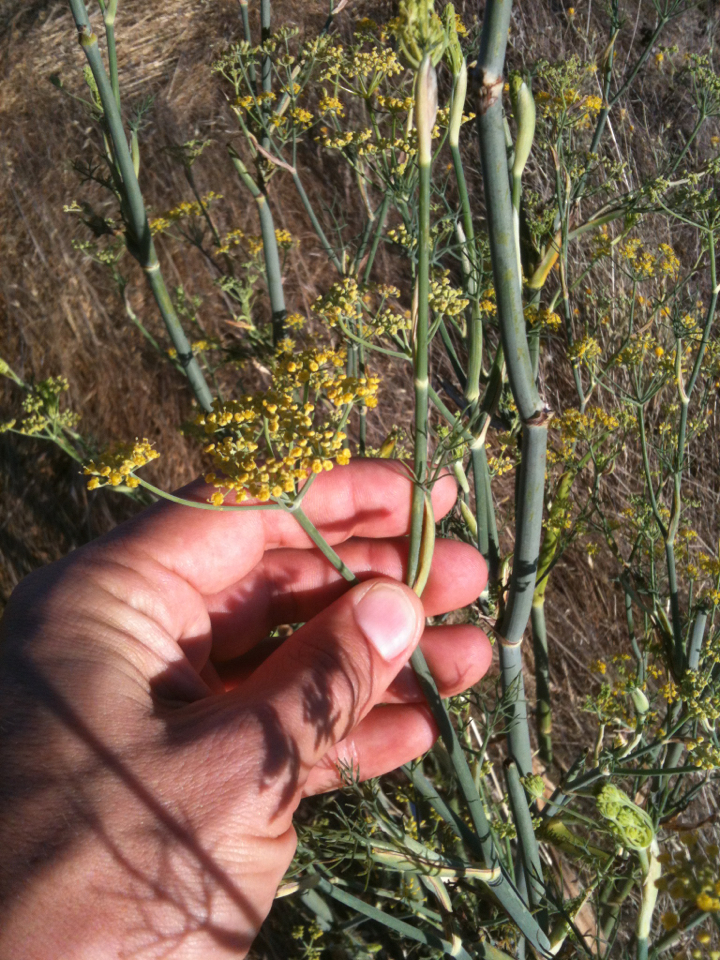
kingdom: Plantae
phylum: Tracheophyta
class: Magnoliopsida
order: Apiales
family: Apiaceae
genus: Foeniculum
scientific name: Foeniculum vulgare
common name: Fennel
